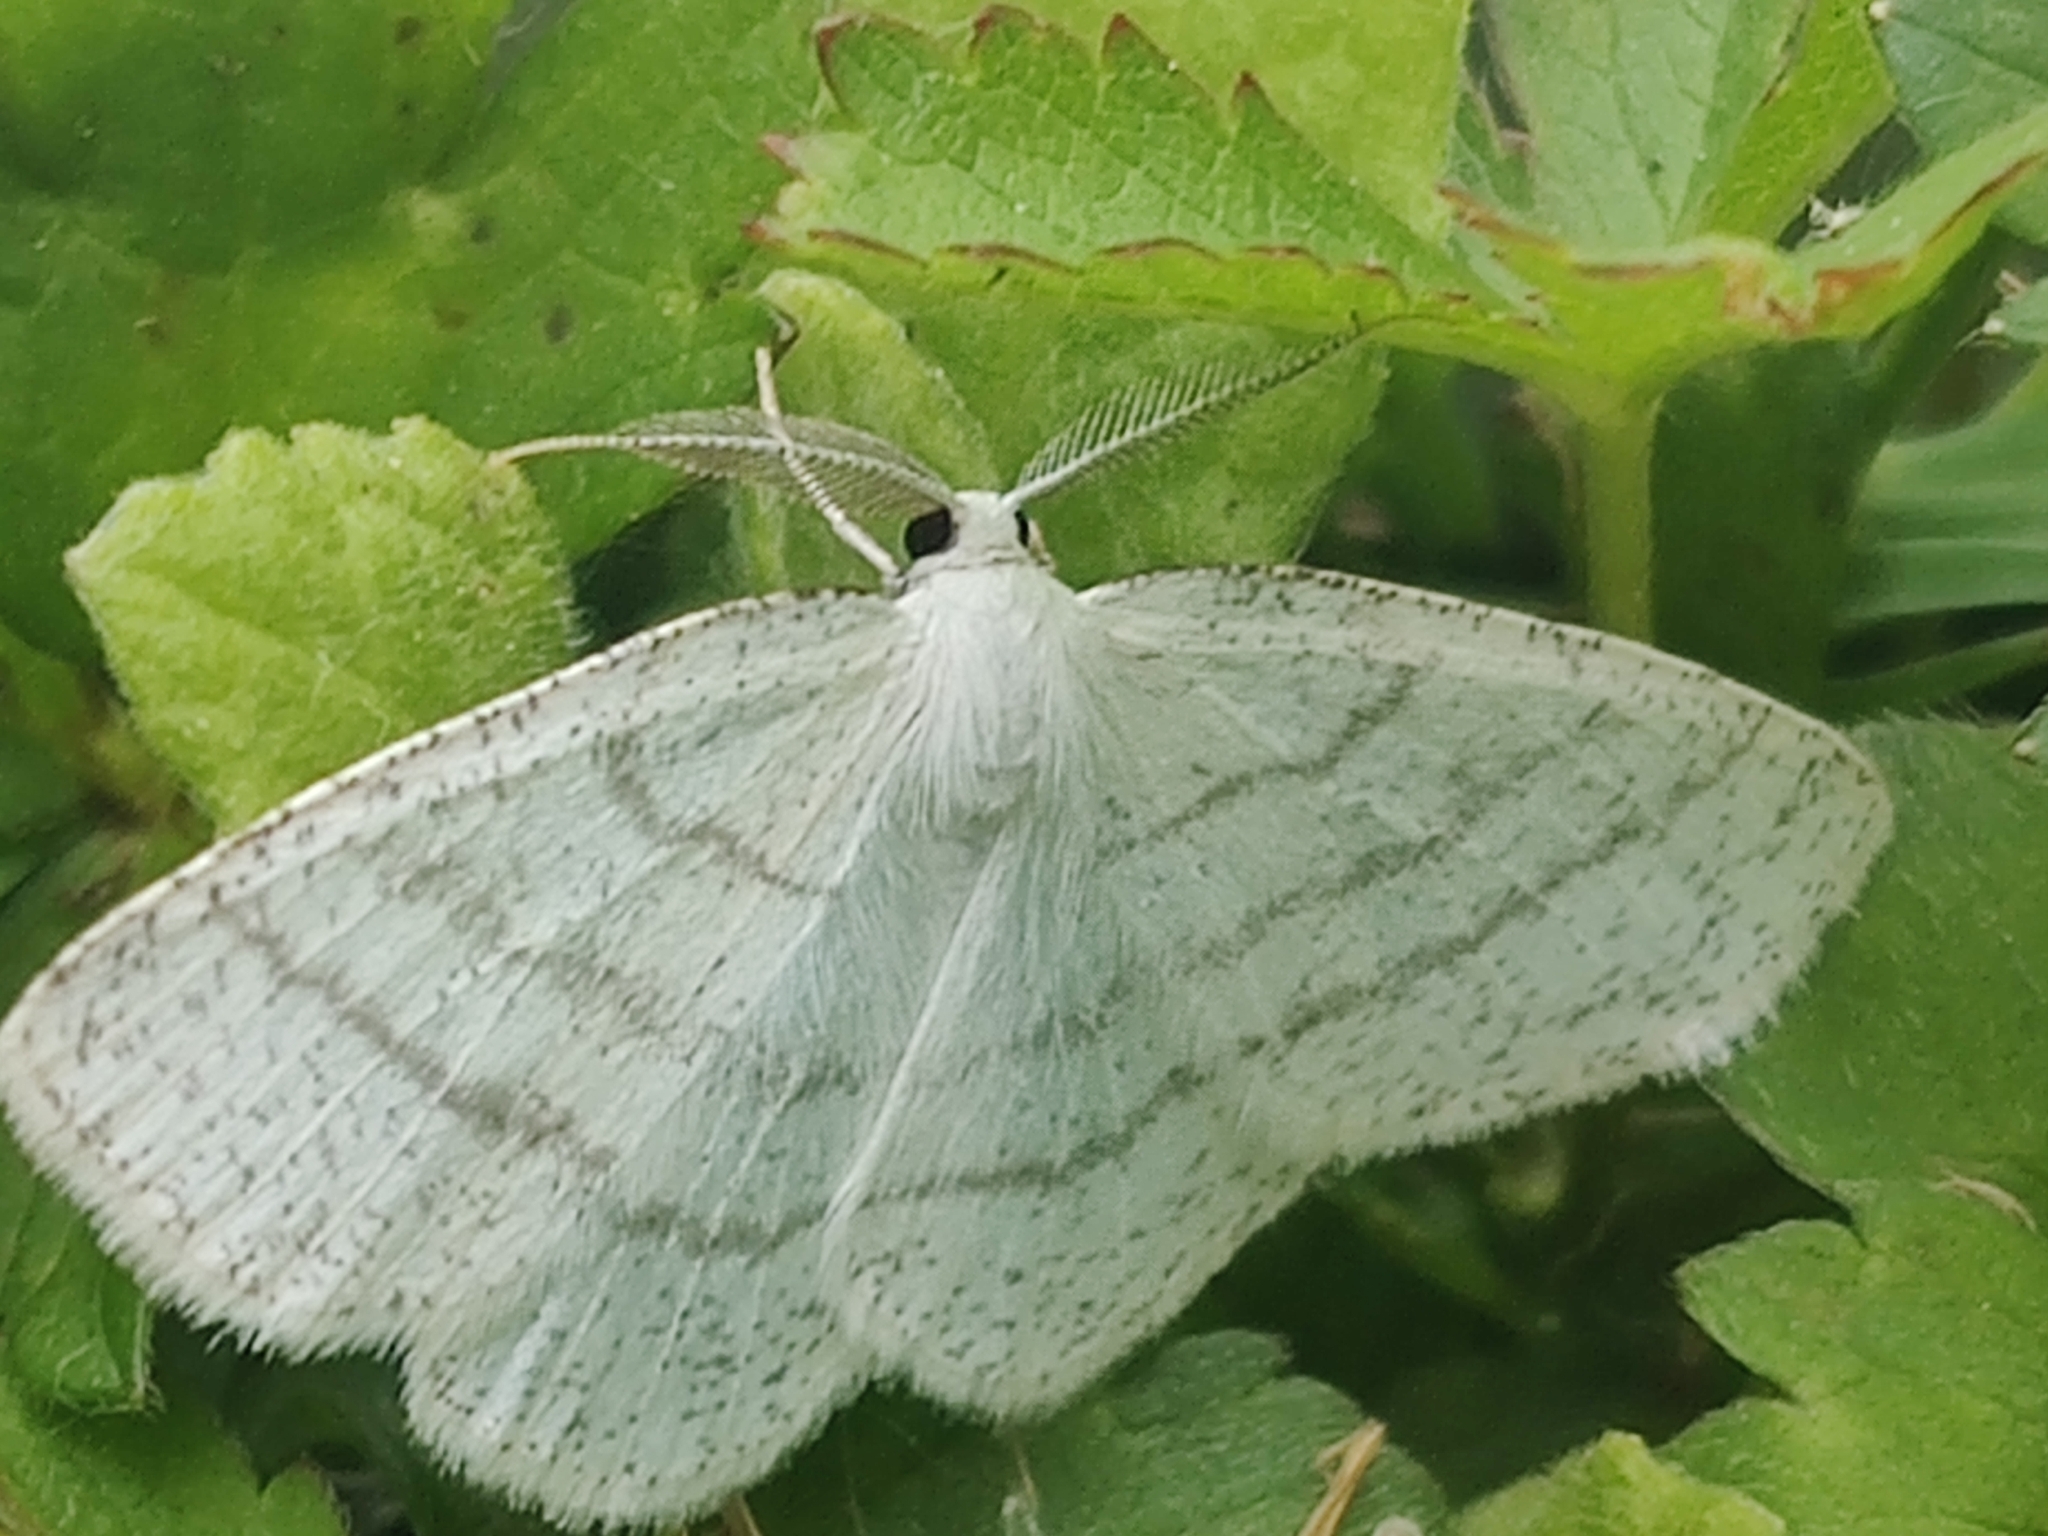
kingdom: Animalia
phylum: Arthropoda
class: Insecta
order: Lepidoptera
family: Geometridae
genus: Cabera
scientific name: Cabera pusaria
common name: Common white wave
